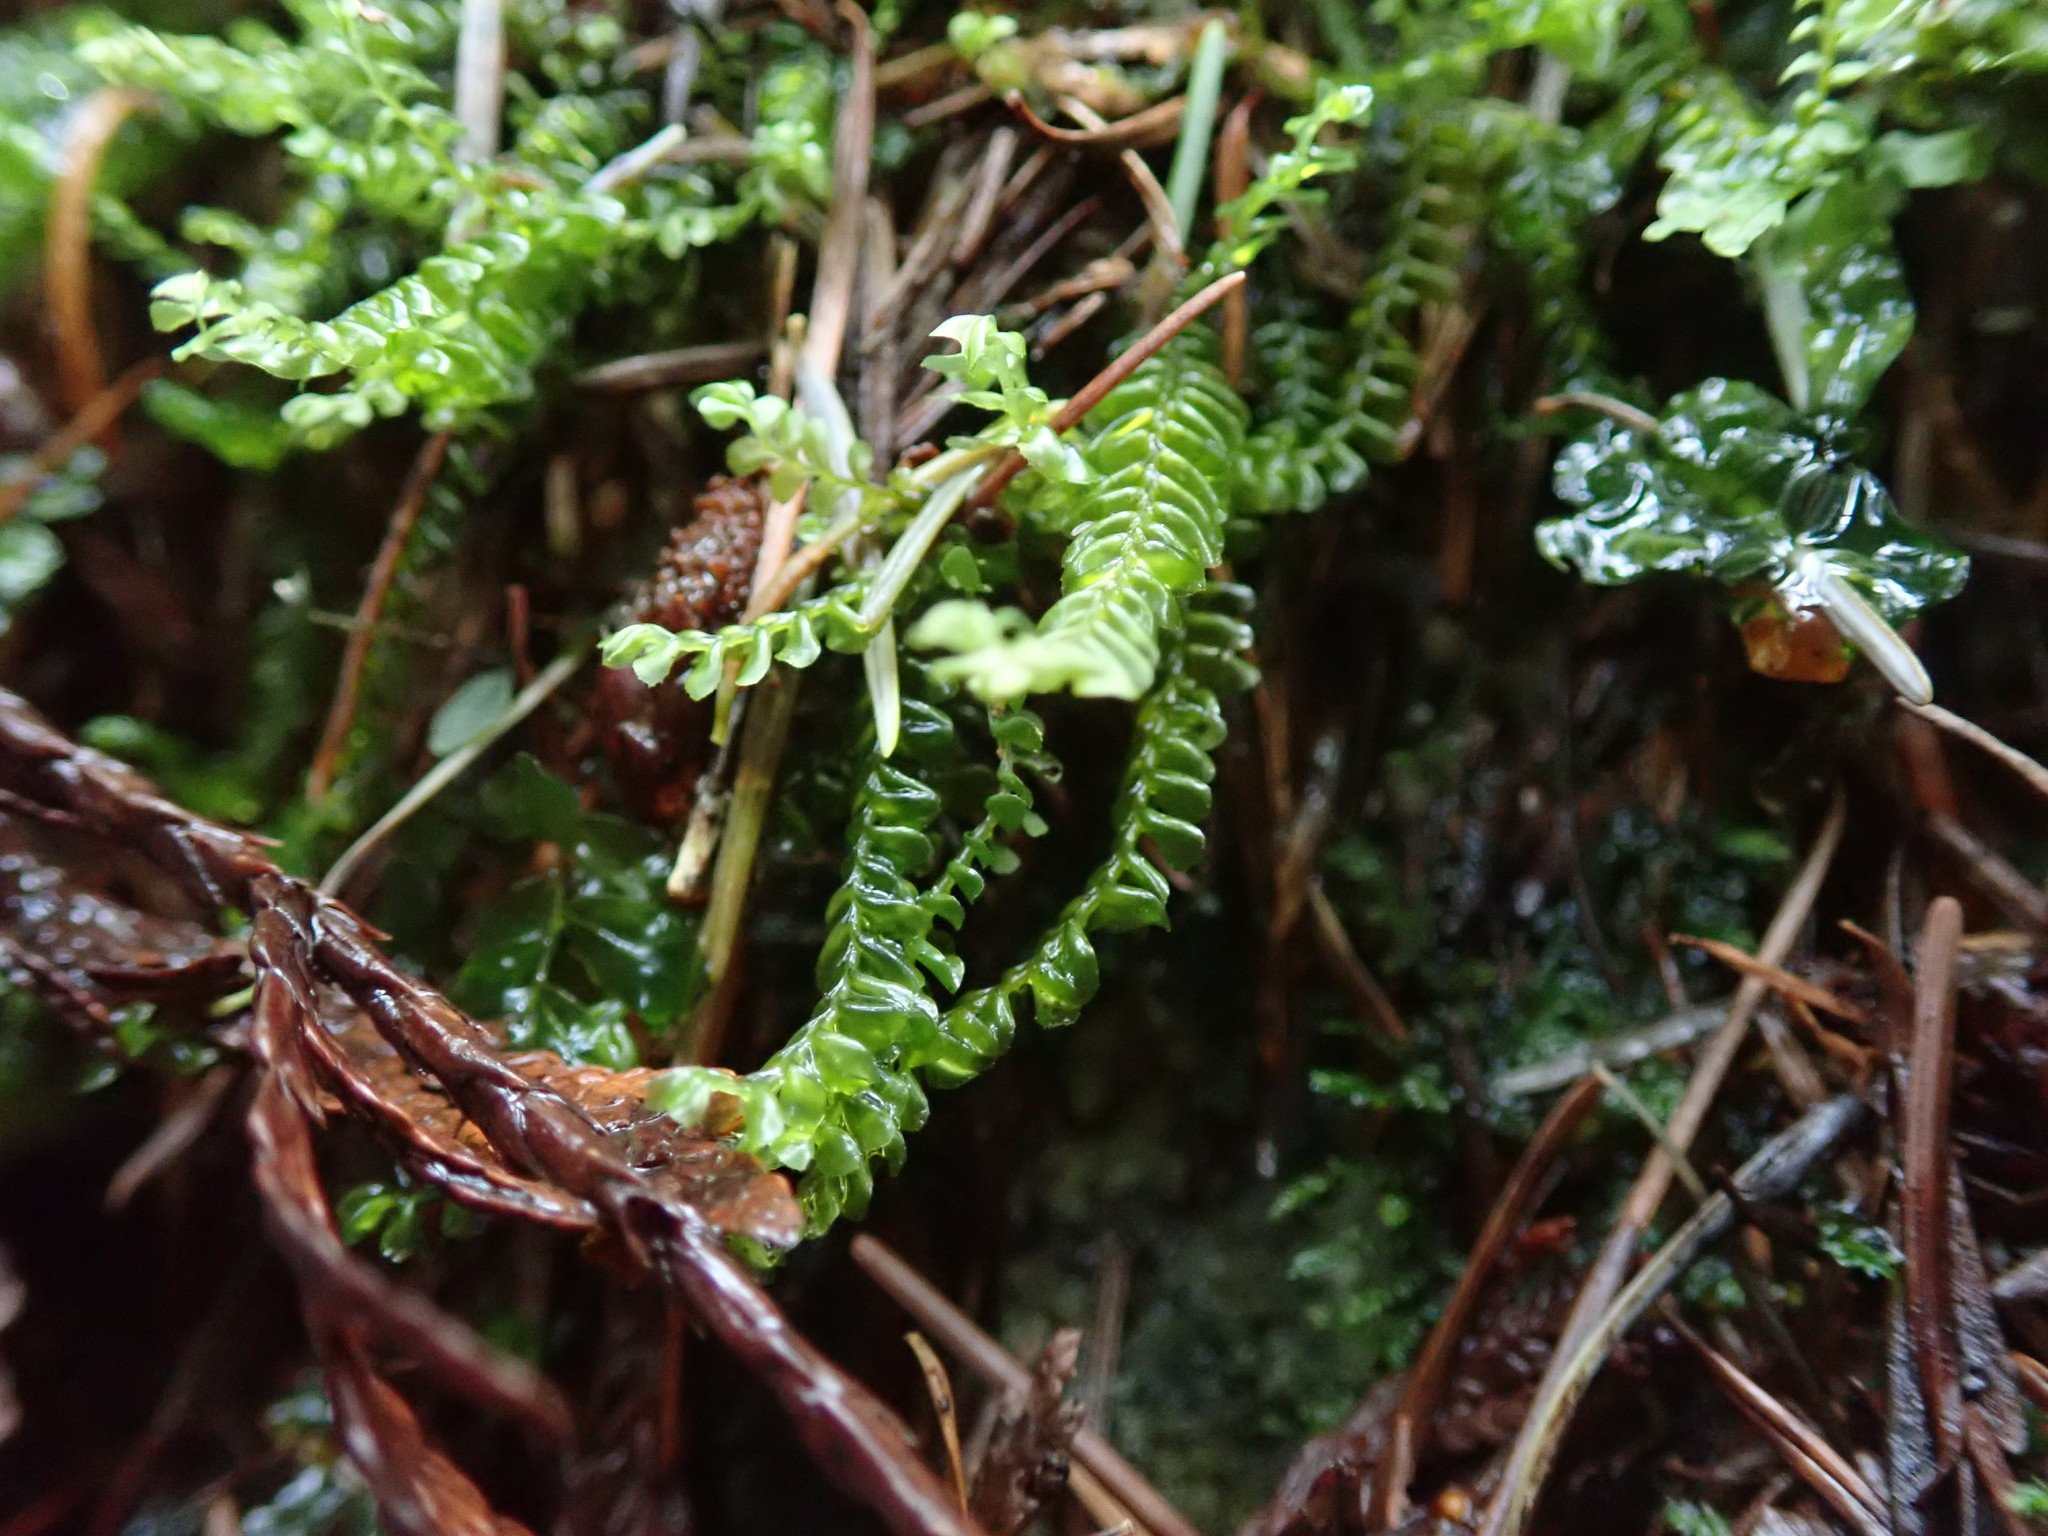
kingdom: Plantae
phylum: Marchantiophyta
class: Jungermanniopsida
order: Jungermanniales
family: Plagiochilaceae
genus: Plagiochila
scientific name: Plagiochila porelloides
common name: Lesser featherwort
